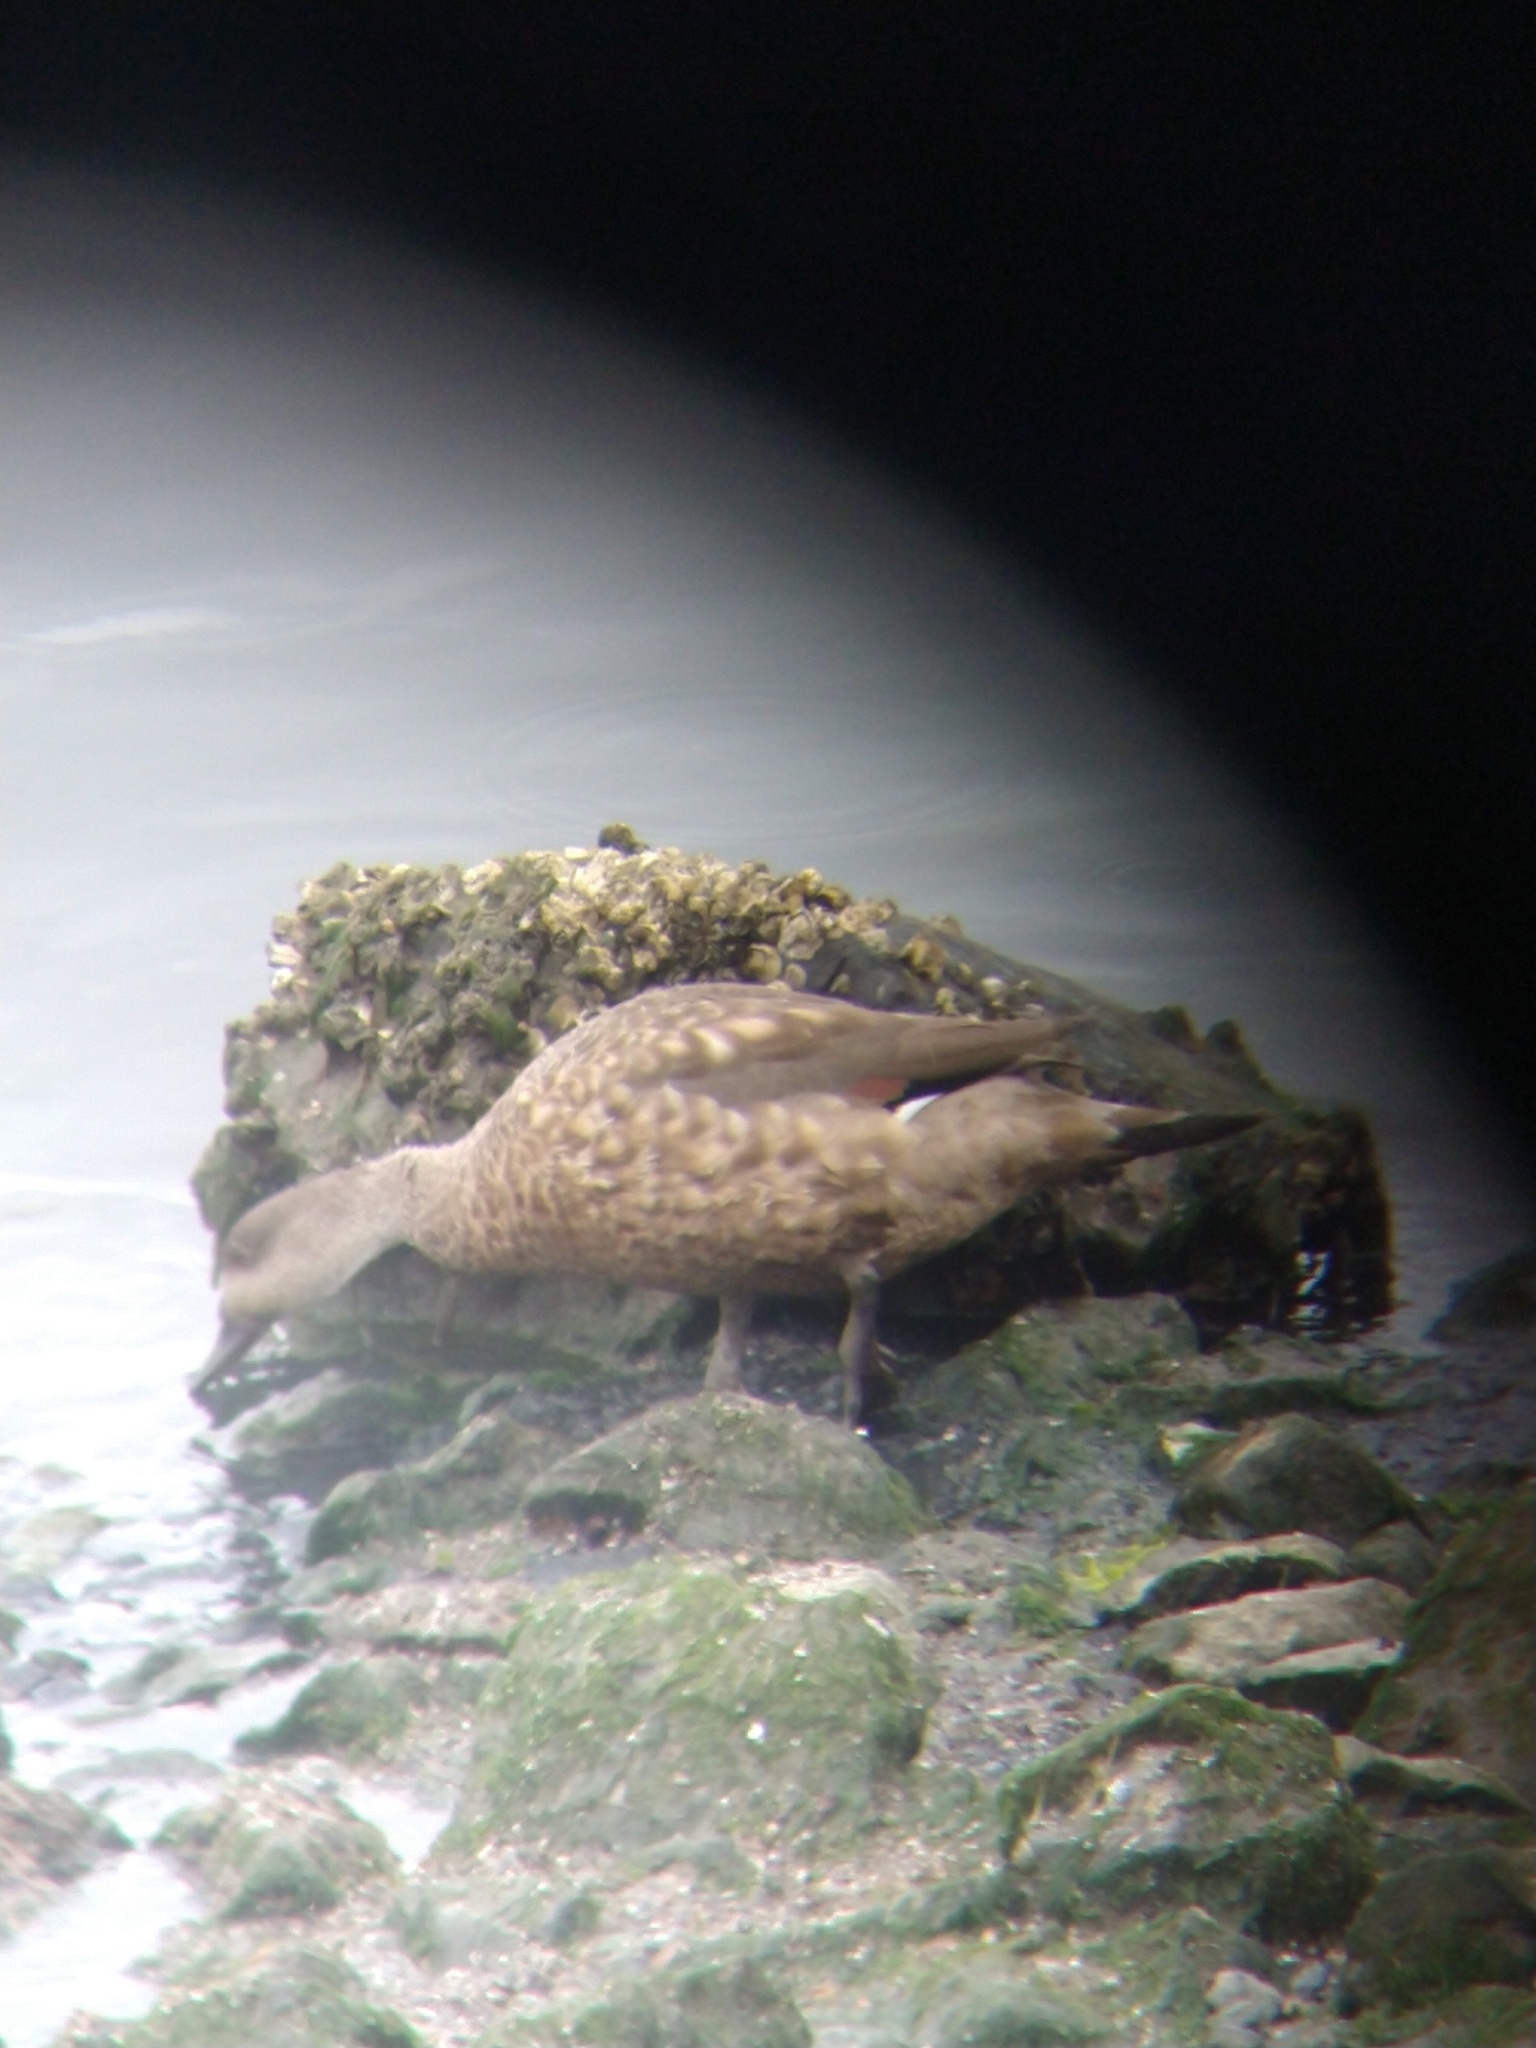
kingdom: Animalia
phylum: Chordata
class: Aves
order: Anseriformes
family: Anatidae
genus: Lophonetta
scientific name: Lophonetta specularioides
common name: Crested duck
